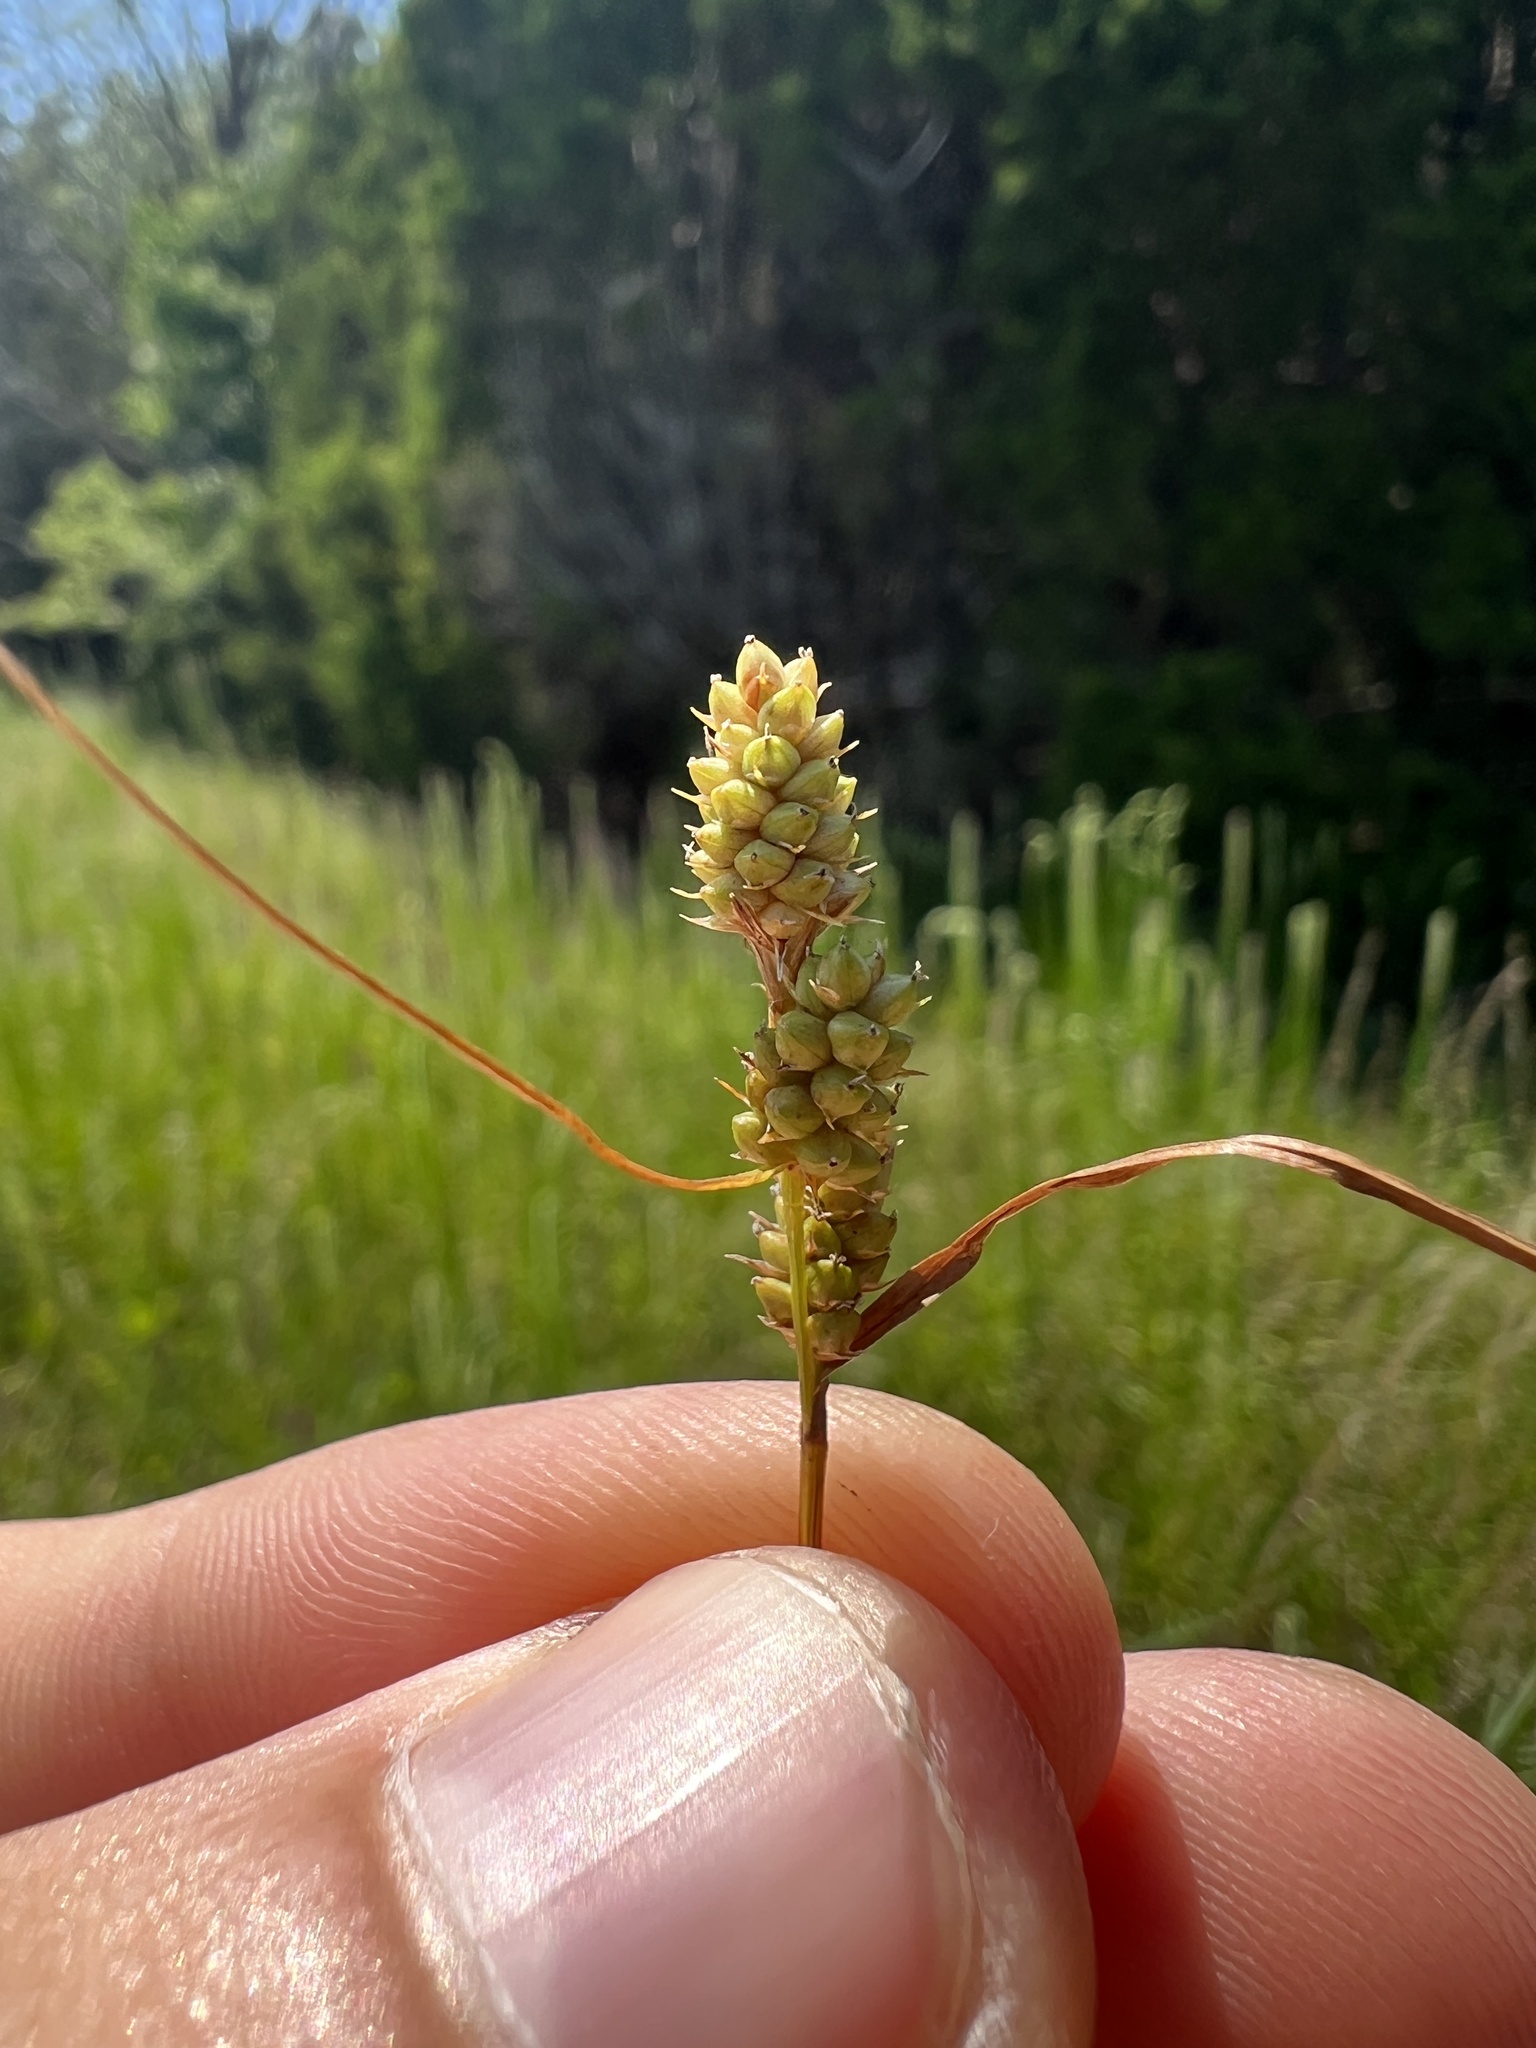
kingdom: Plantae
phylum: Tracheophyta
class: Liliopsida
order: Poales
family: Cyperaceae
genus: Carex
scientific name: Carex bushii
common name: Bush's sedge
